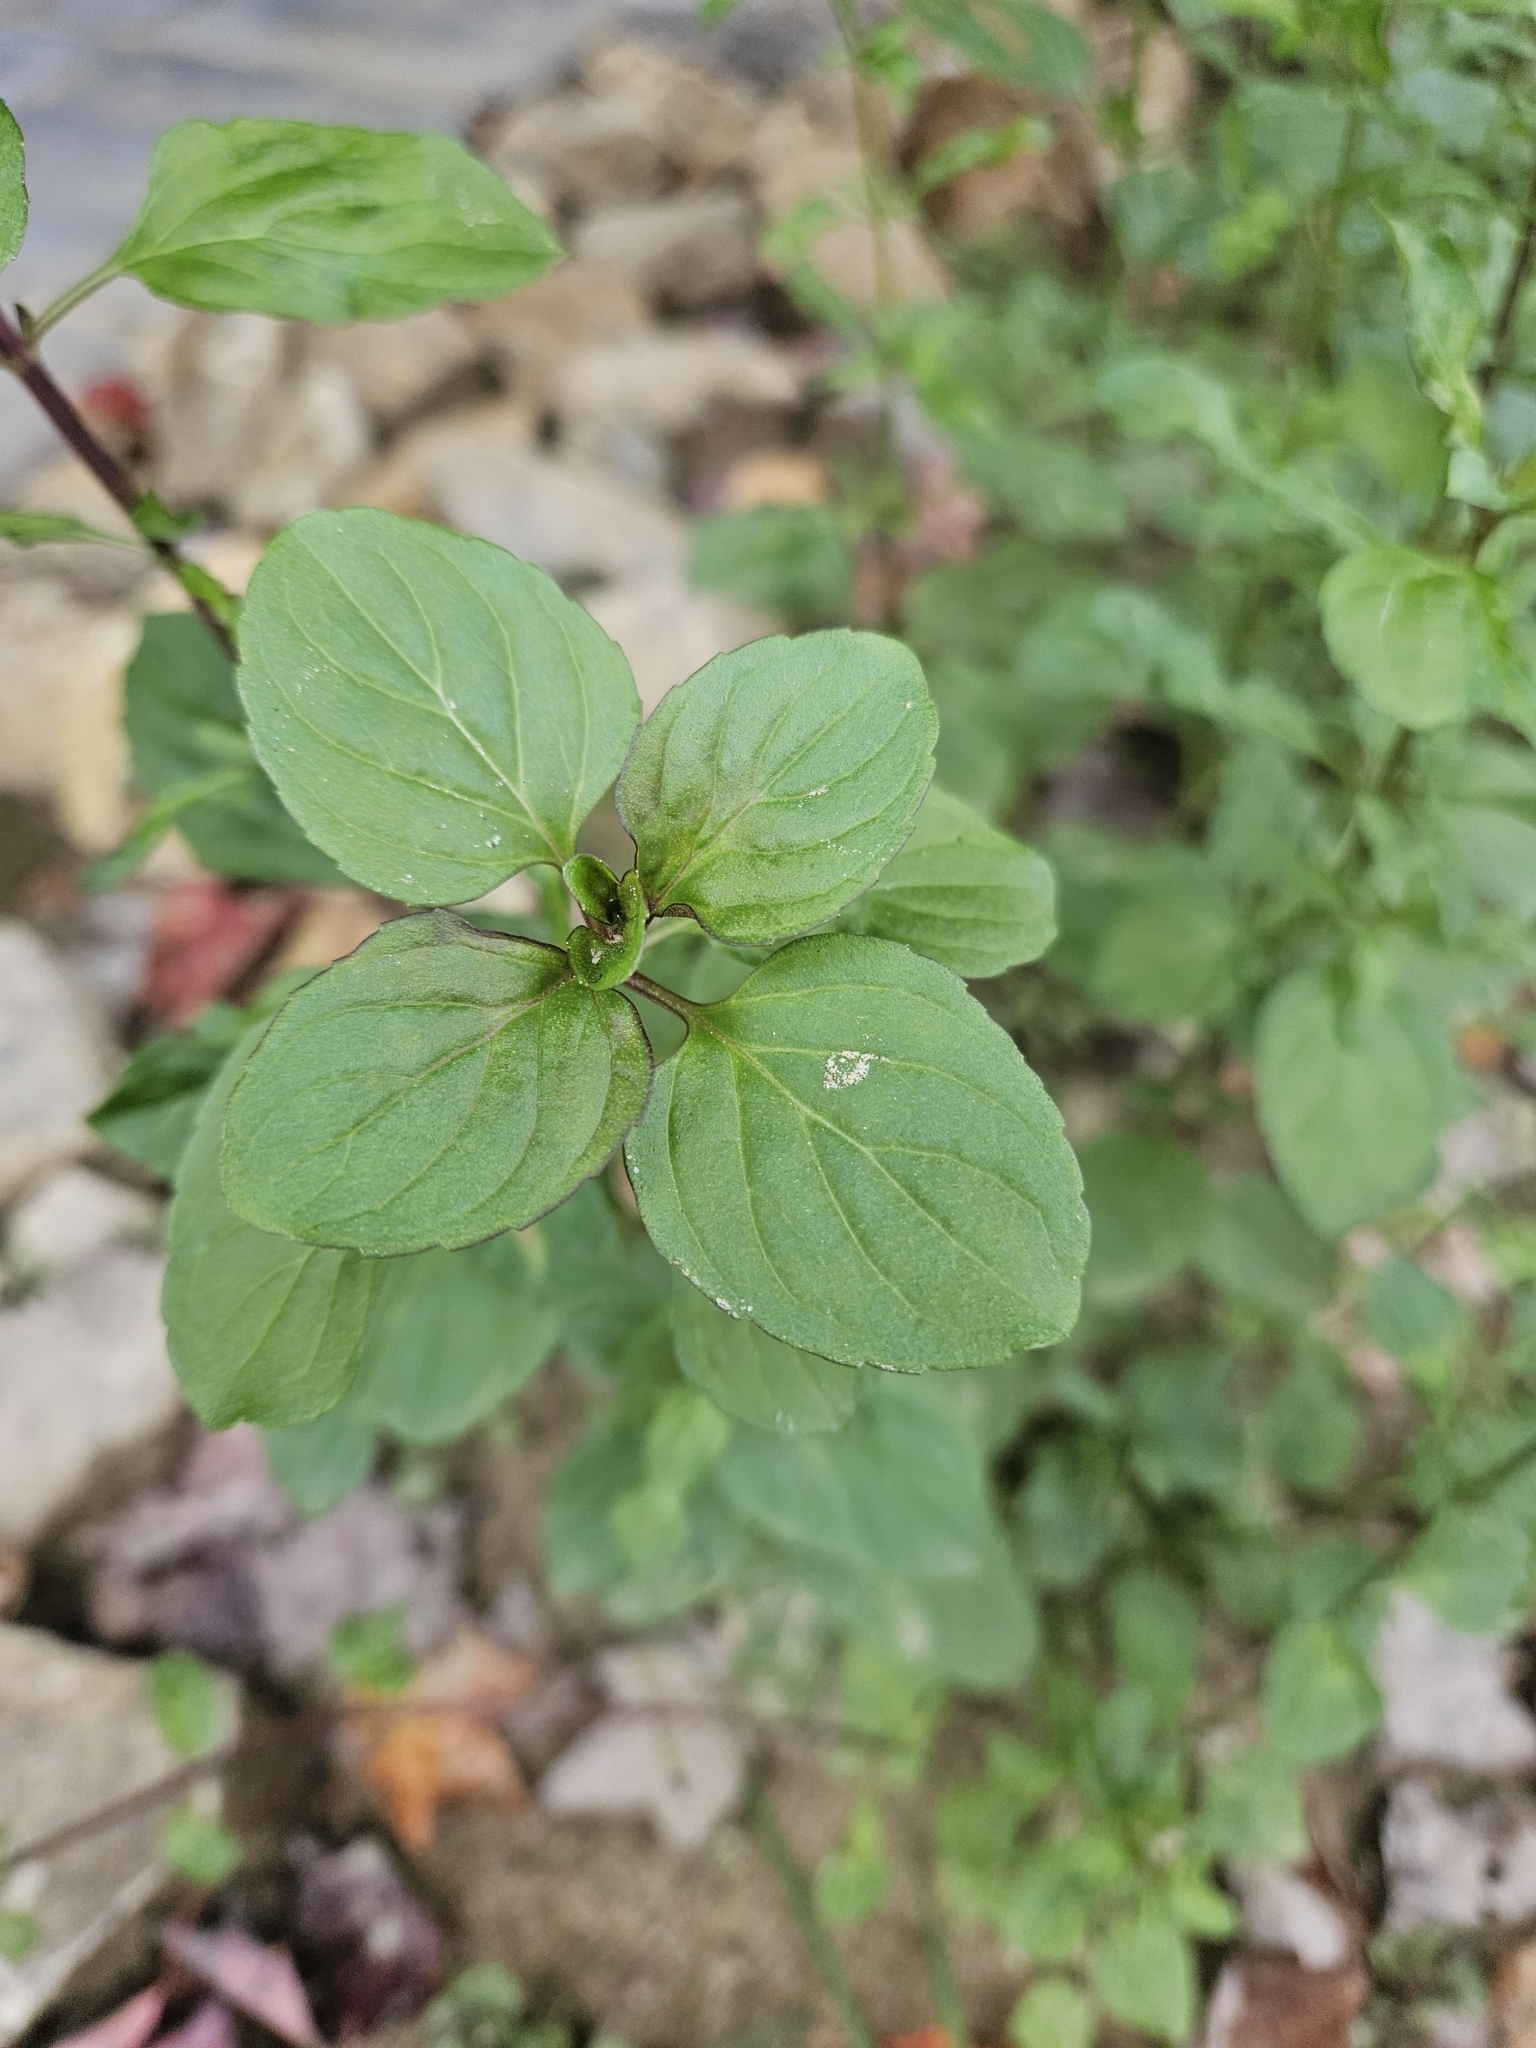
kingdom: Plantae
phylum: Tracheophyta
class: Magnoliopsida
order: Rosales
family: Rhamnaceae
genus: Rhamnus
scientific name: Rhamnus cathartica
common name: Common buckthorn
